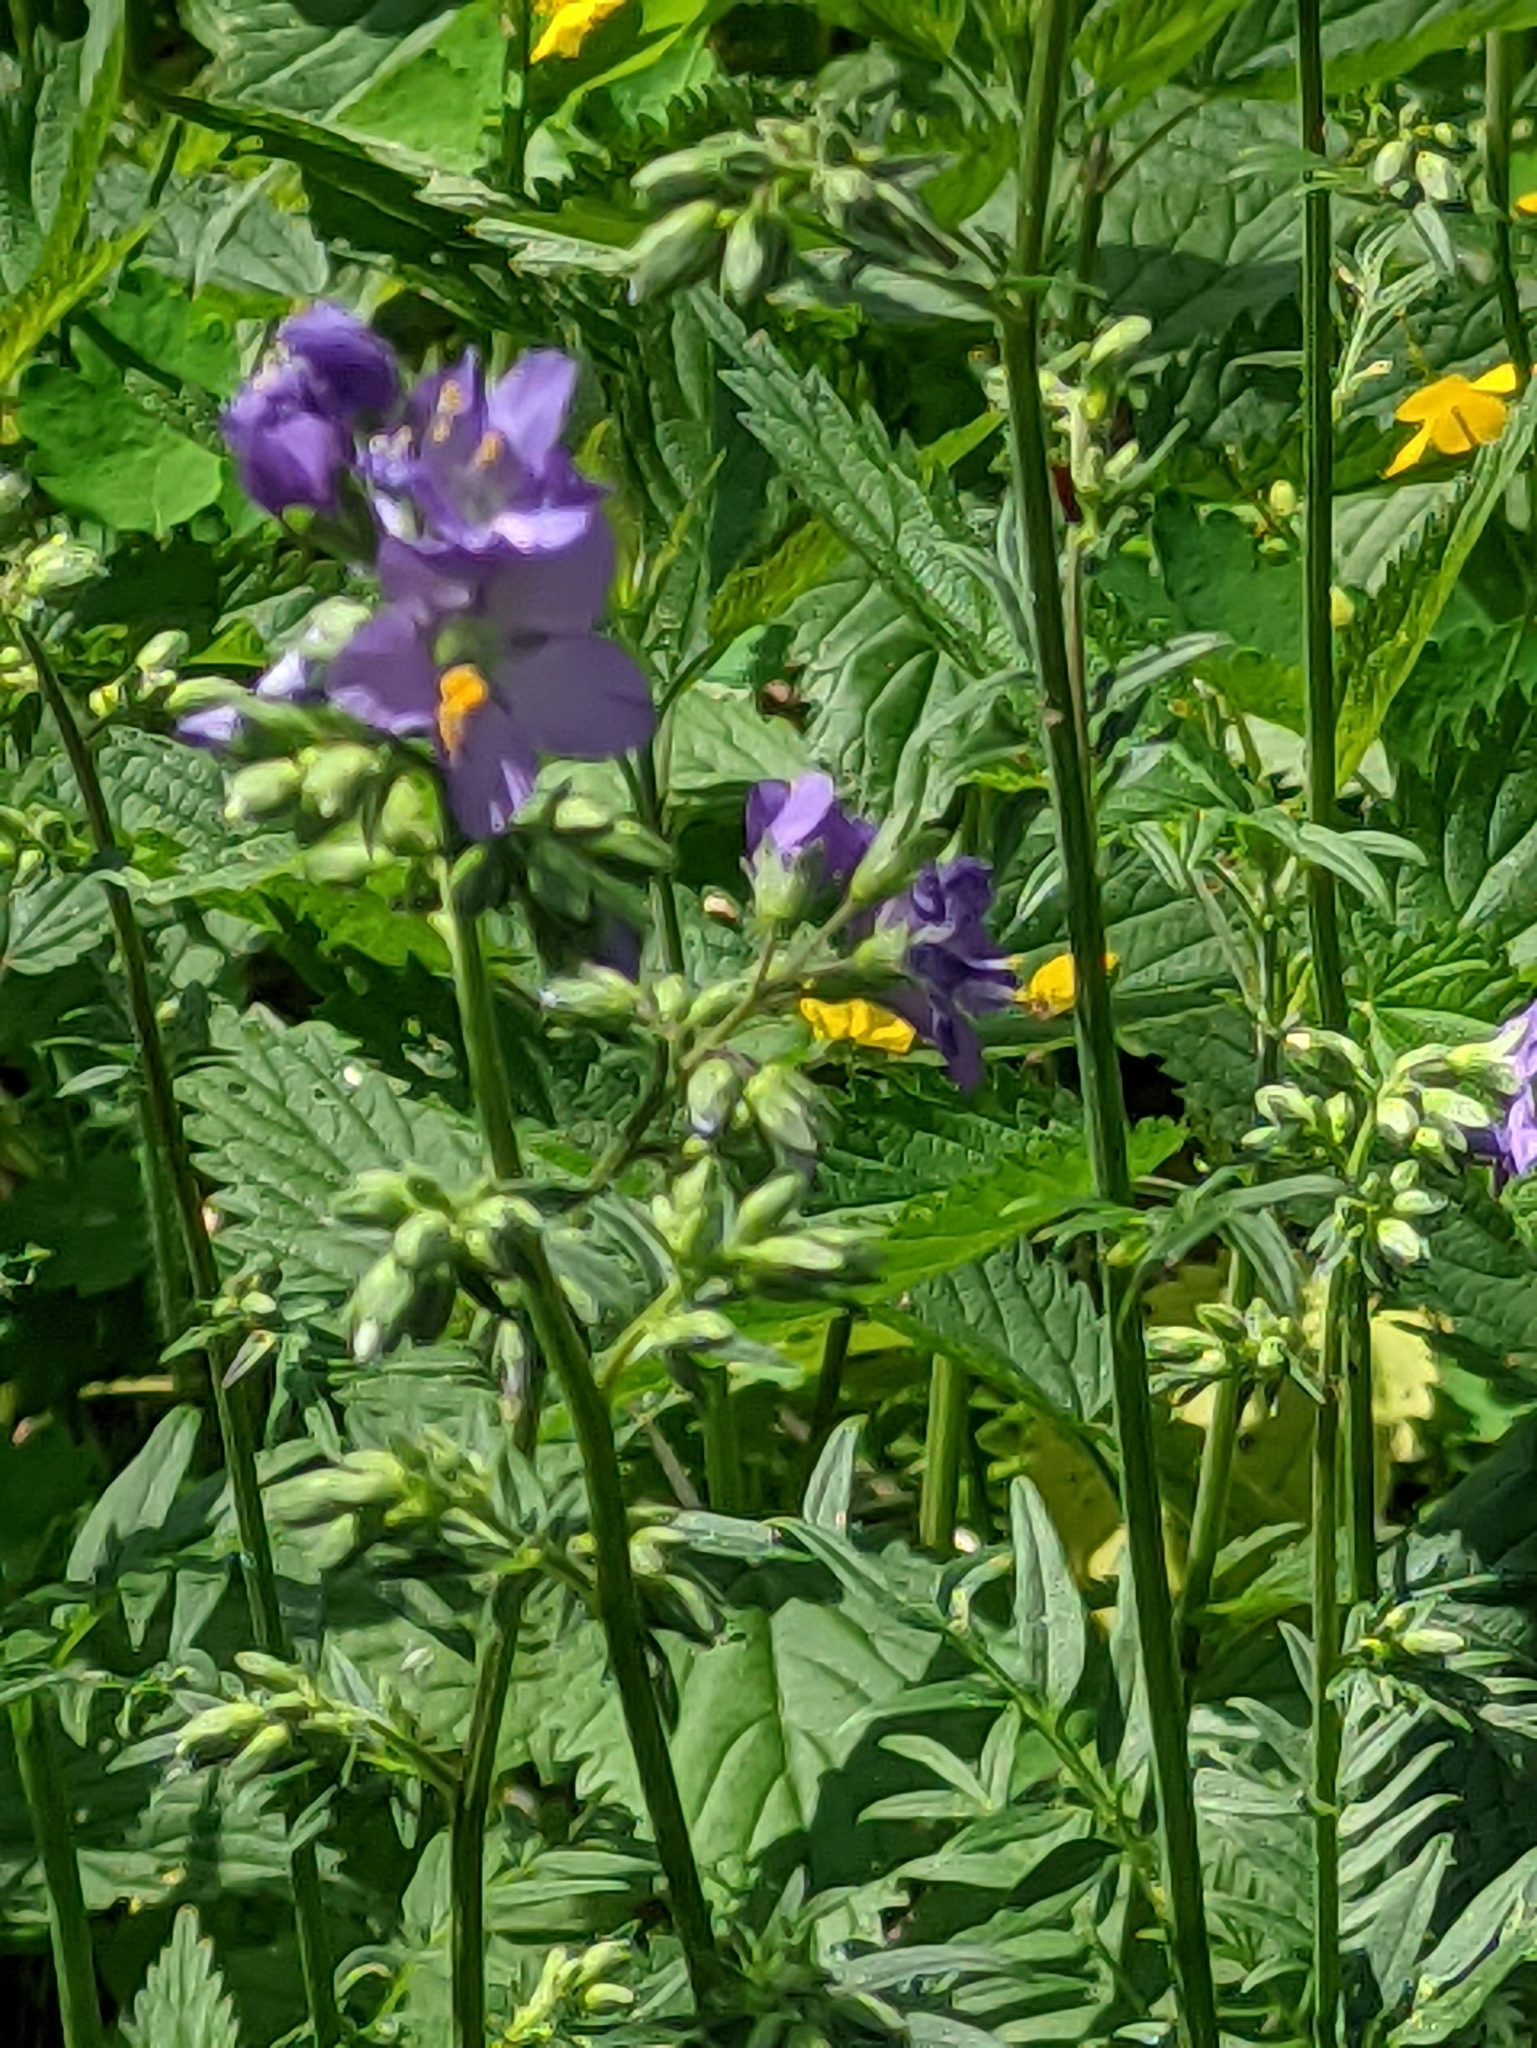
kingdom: Plantae
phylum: Tracheophyta
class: Magnoliopsida
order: Ericales
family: Polemoniaceae
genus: Polemonium
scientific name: Polemonium caeruleum
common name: Jacob's-ladder
